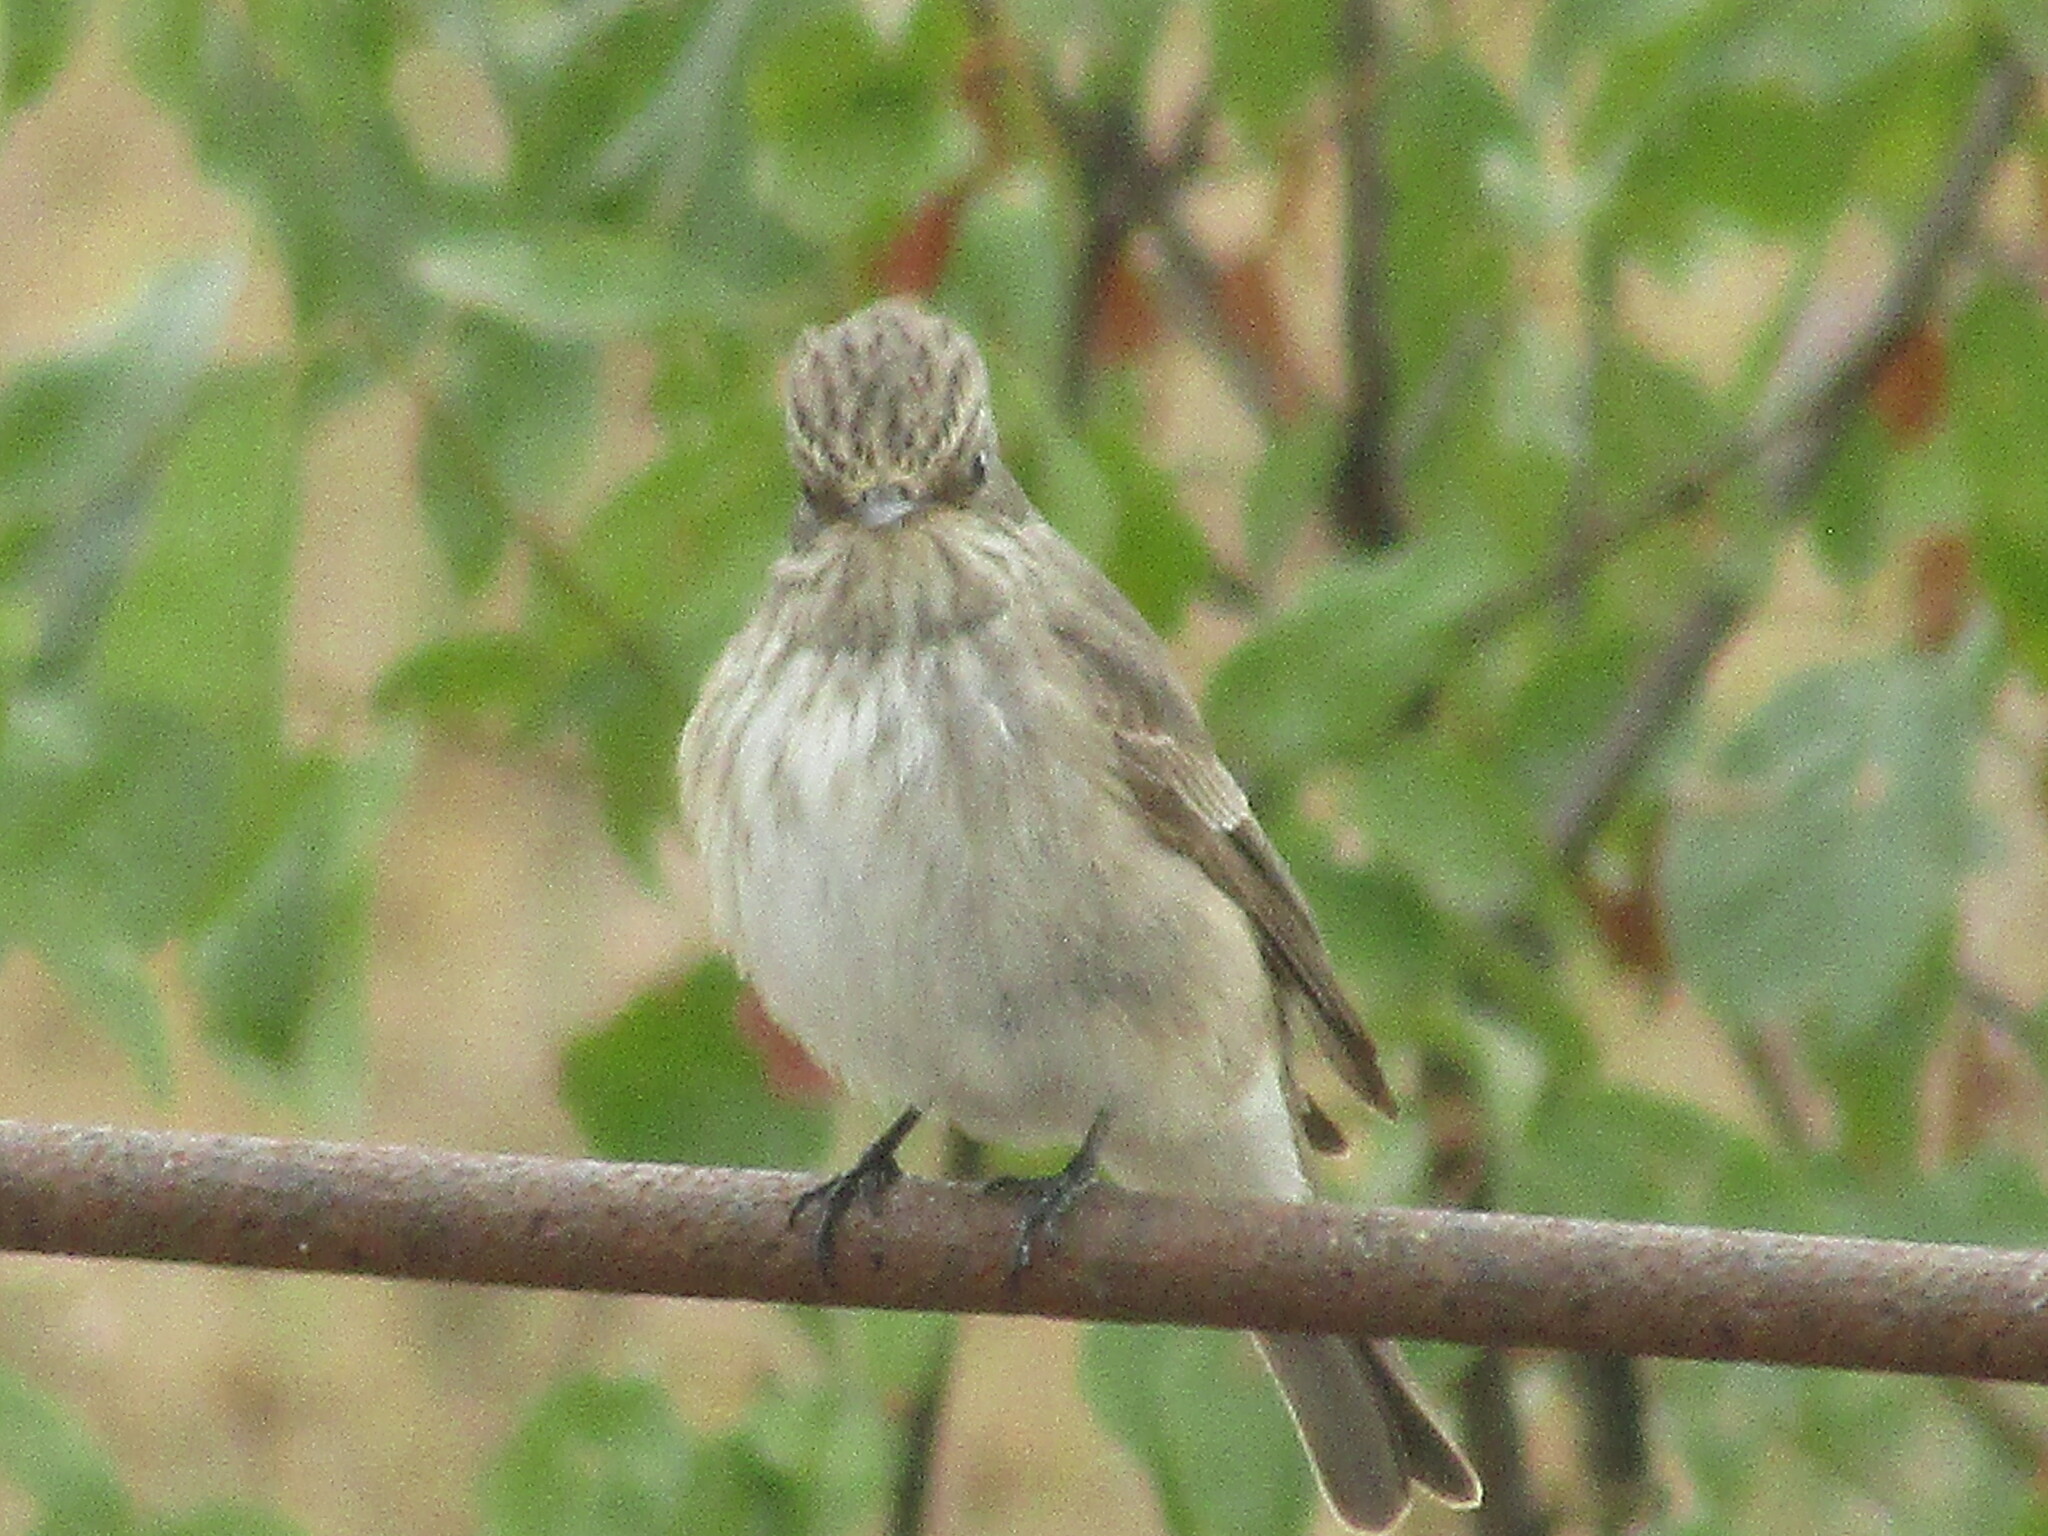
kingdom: Animalia
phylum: Chordata
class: Aves
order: Passeriformes
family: Muscicapidae
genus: Muscicapa
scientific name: Muscicapa striata
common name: Spotted flycatcher
